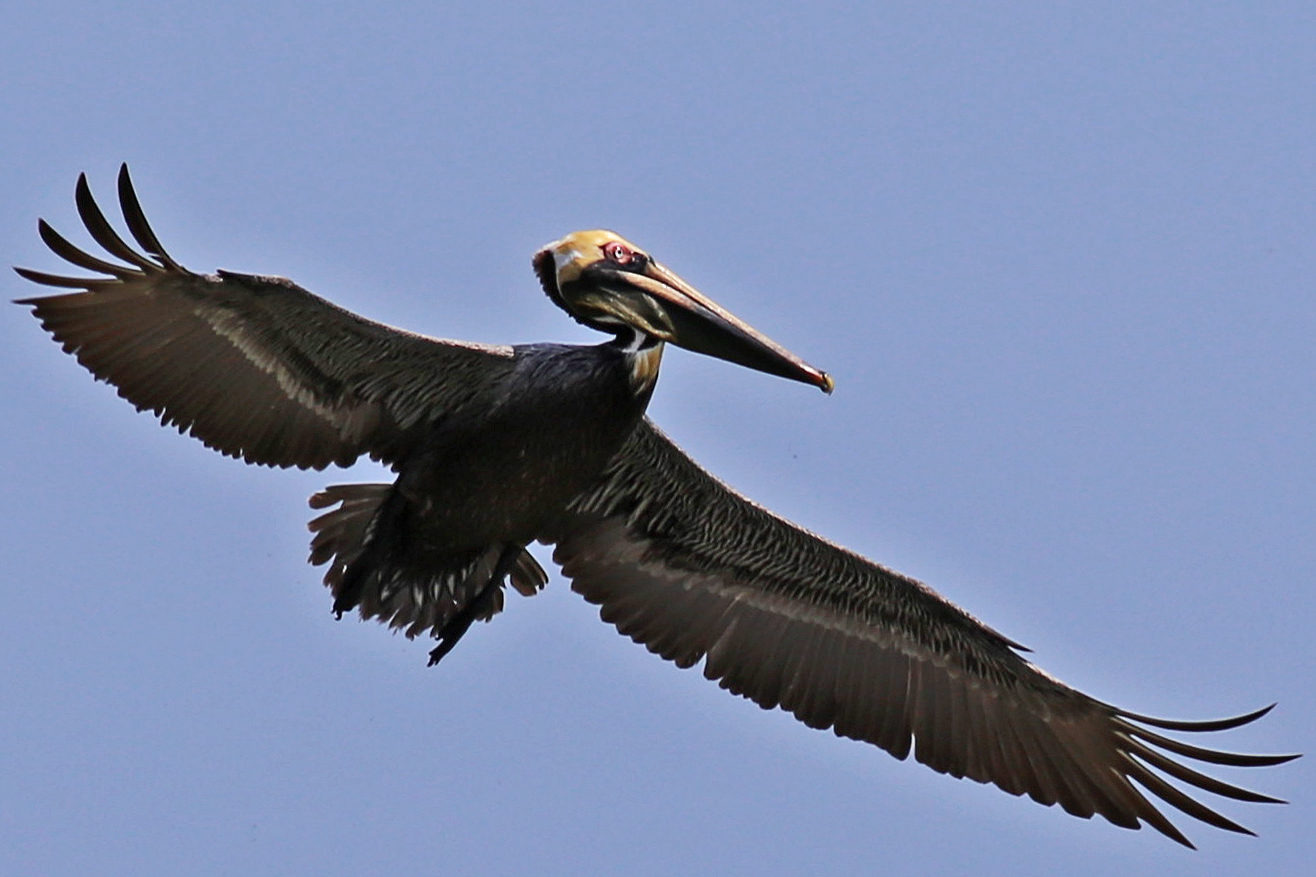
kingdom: Animalia
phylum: Chordata
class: Aves
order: Pelecaniformes
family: Pelecanidae
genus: Pelecanus
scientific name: Pelecanus occidentalis
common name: Brown pelican
